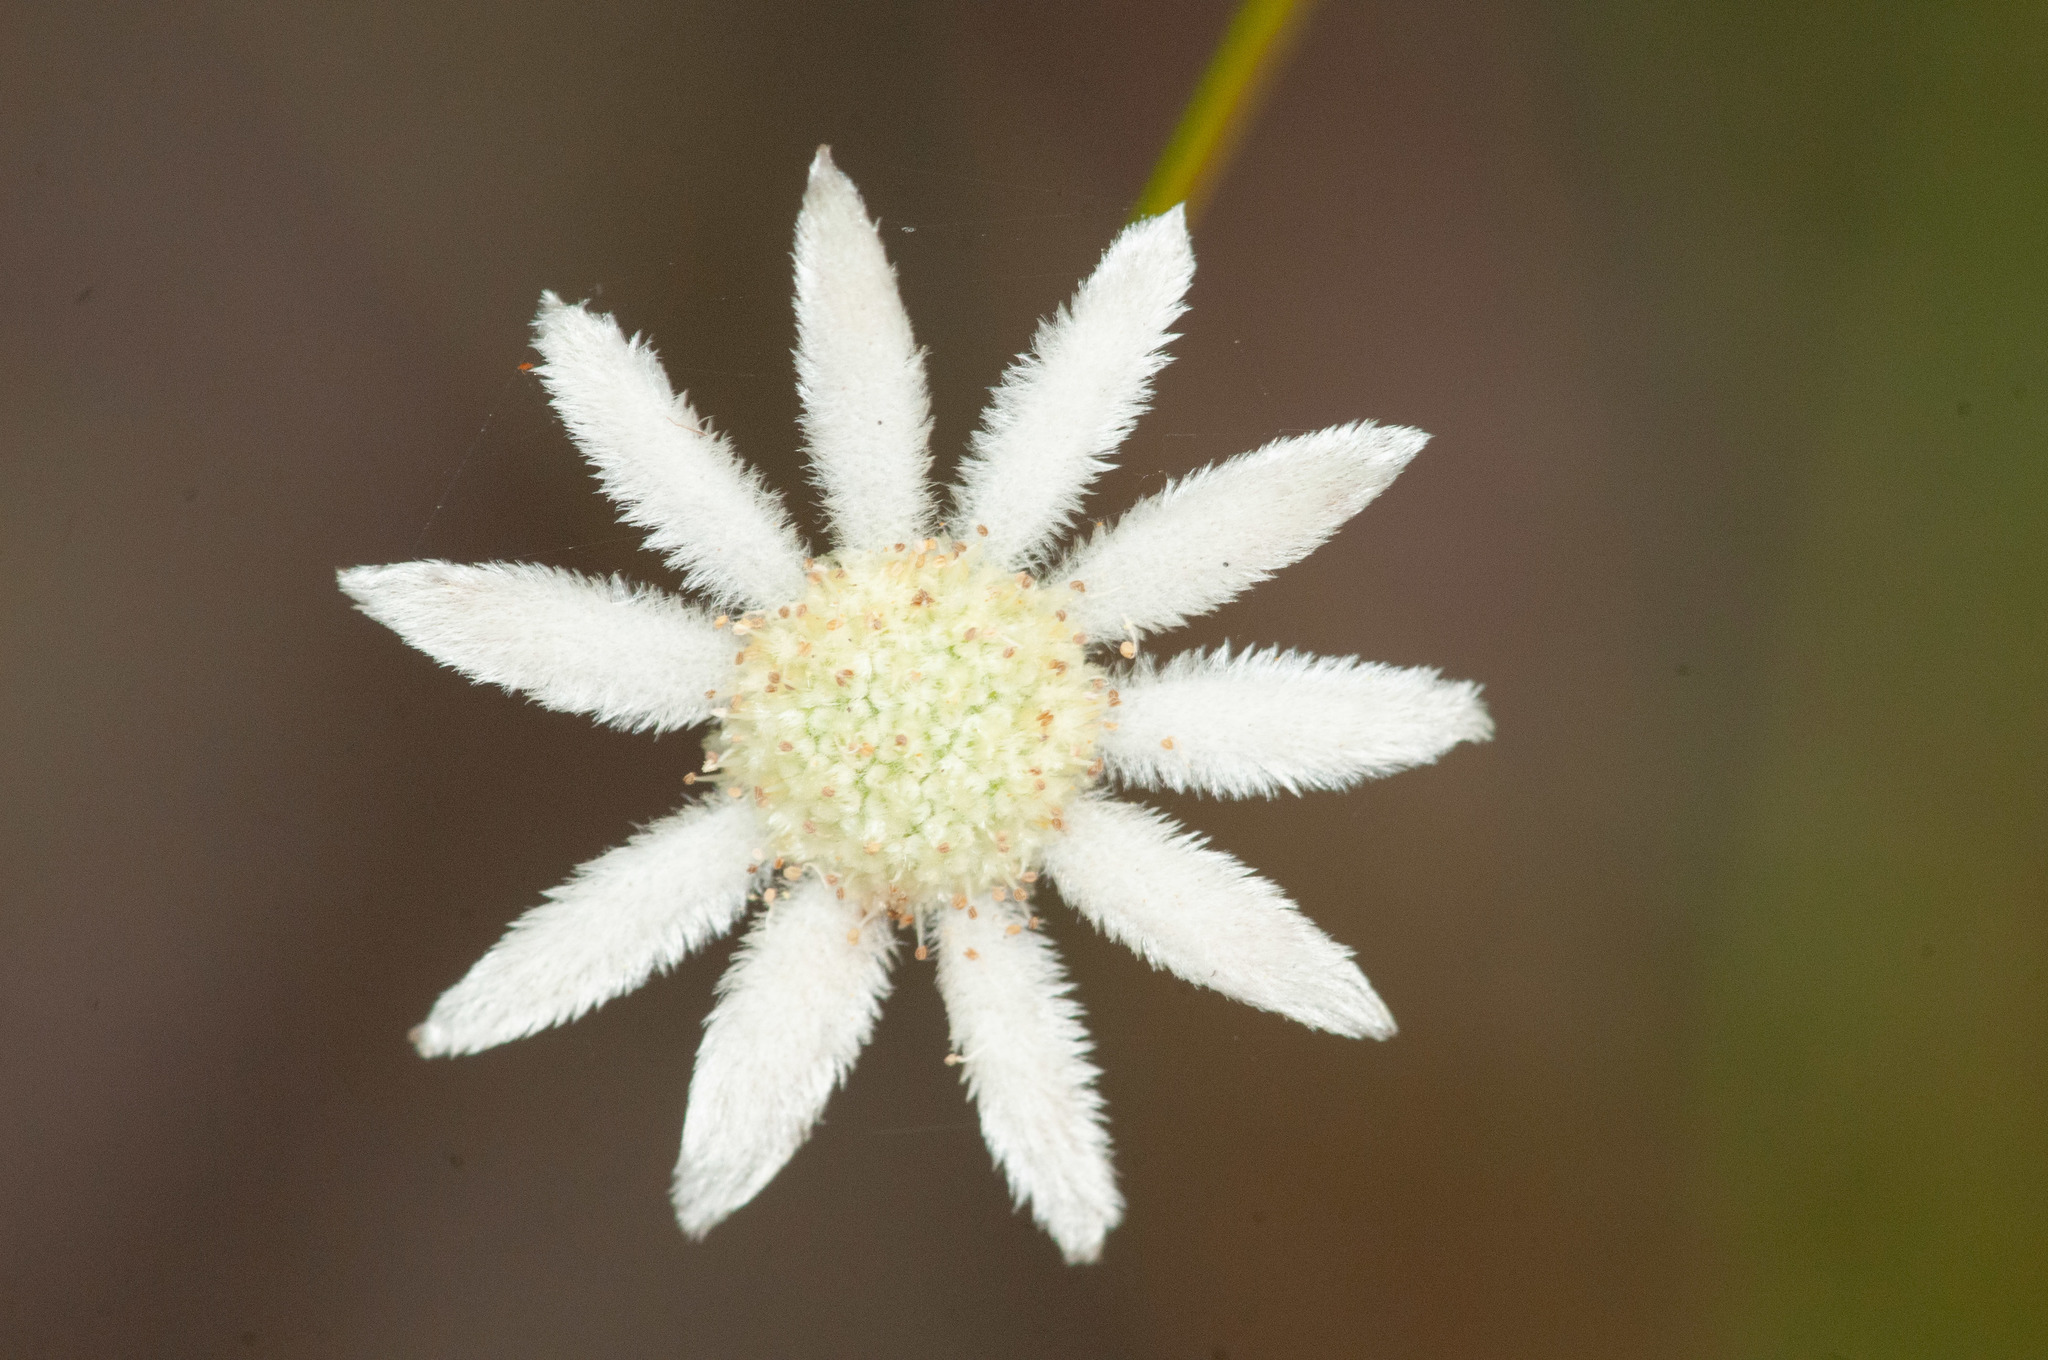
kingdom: Plantae
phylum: Tracheophyta
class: Magnoliopsida
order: Apiales
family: Apiaceae
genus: Actinotus
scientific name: Actinotus minor
